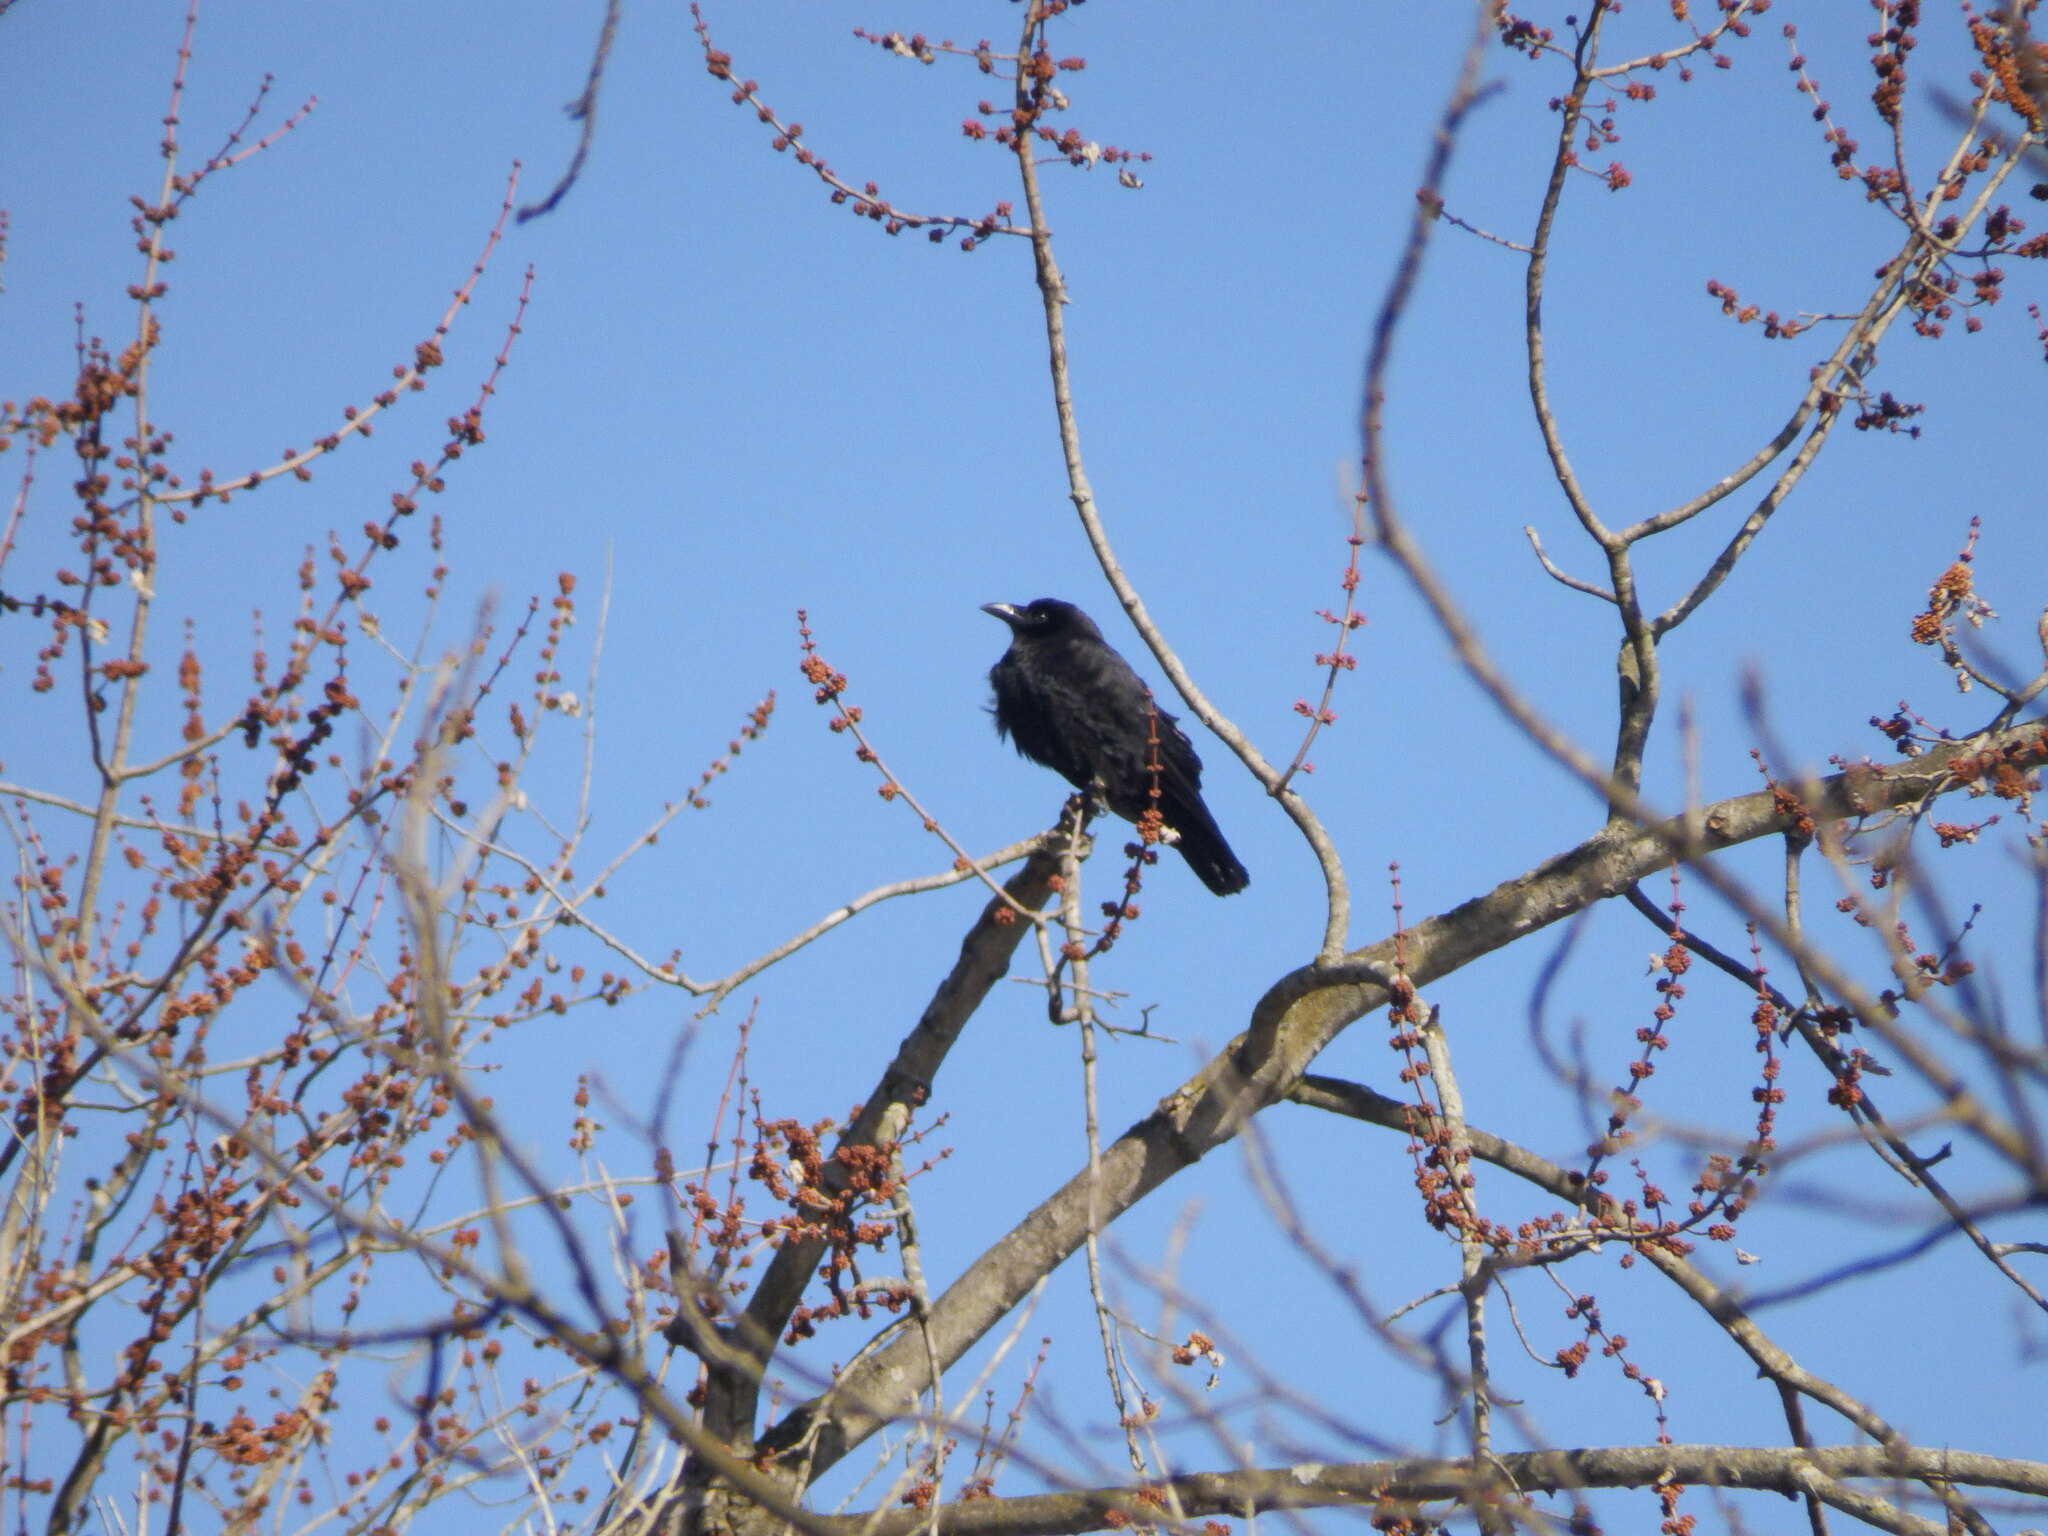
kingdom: Animalia
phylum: Chordata
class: Aves
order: Passeriformes
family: Corvidae
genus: Corvus
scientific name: Corvus brachyrhynchos
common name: American crow
